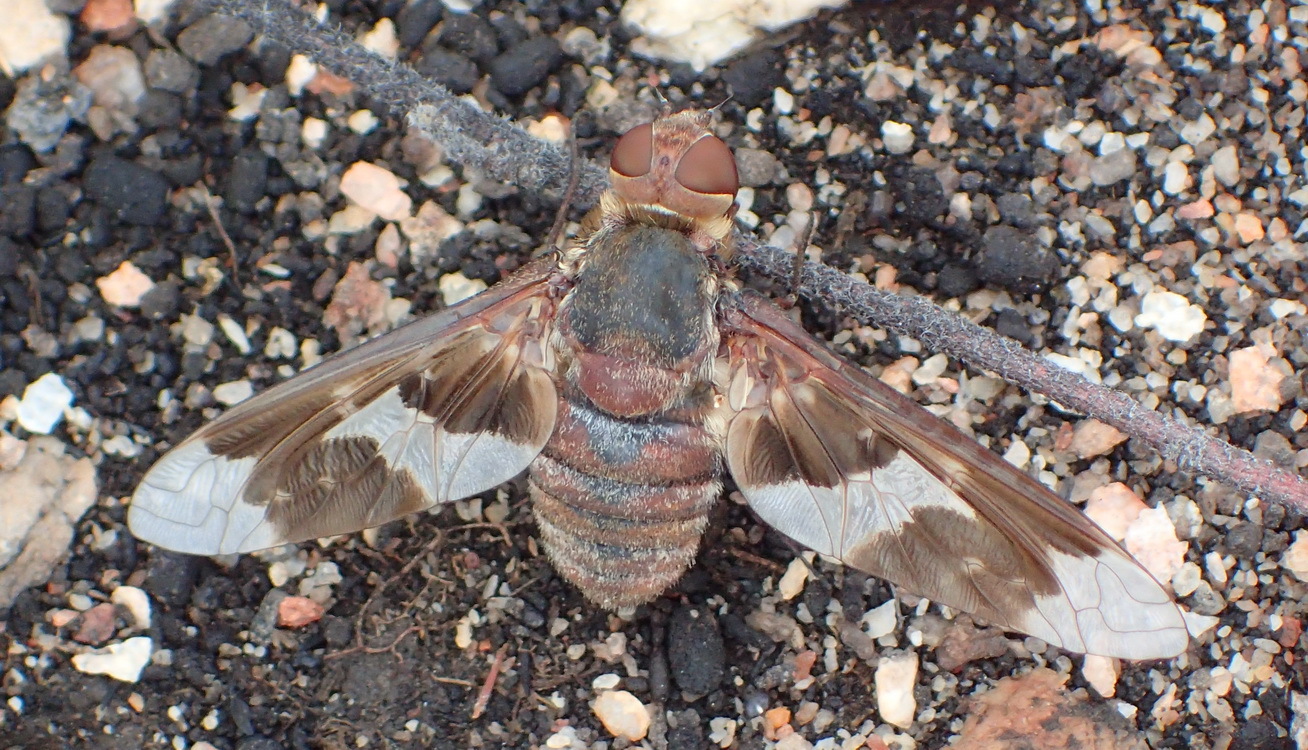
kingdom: Animalia
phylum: Arthropoda
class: Insecta
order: Diptera
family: Bombyliidae
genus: Exoprosopa
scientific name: Exoprosopa strenua
